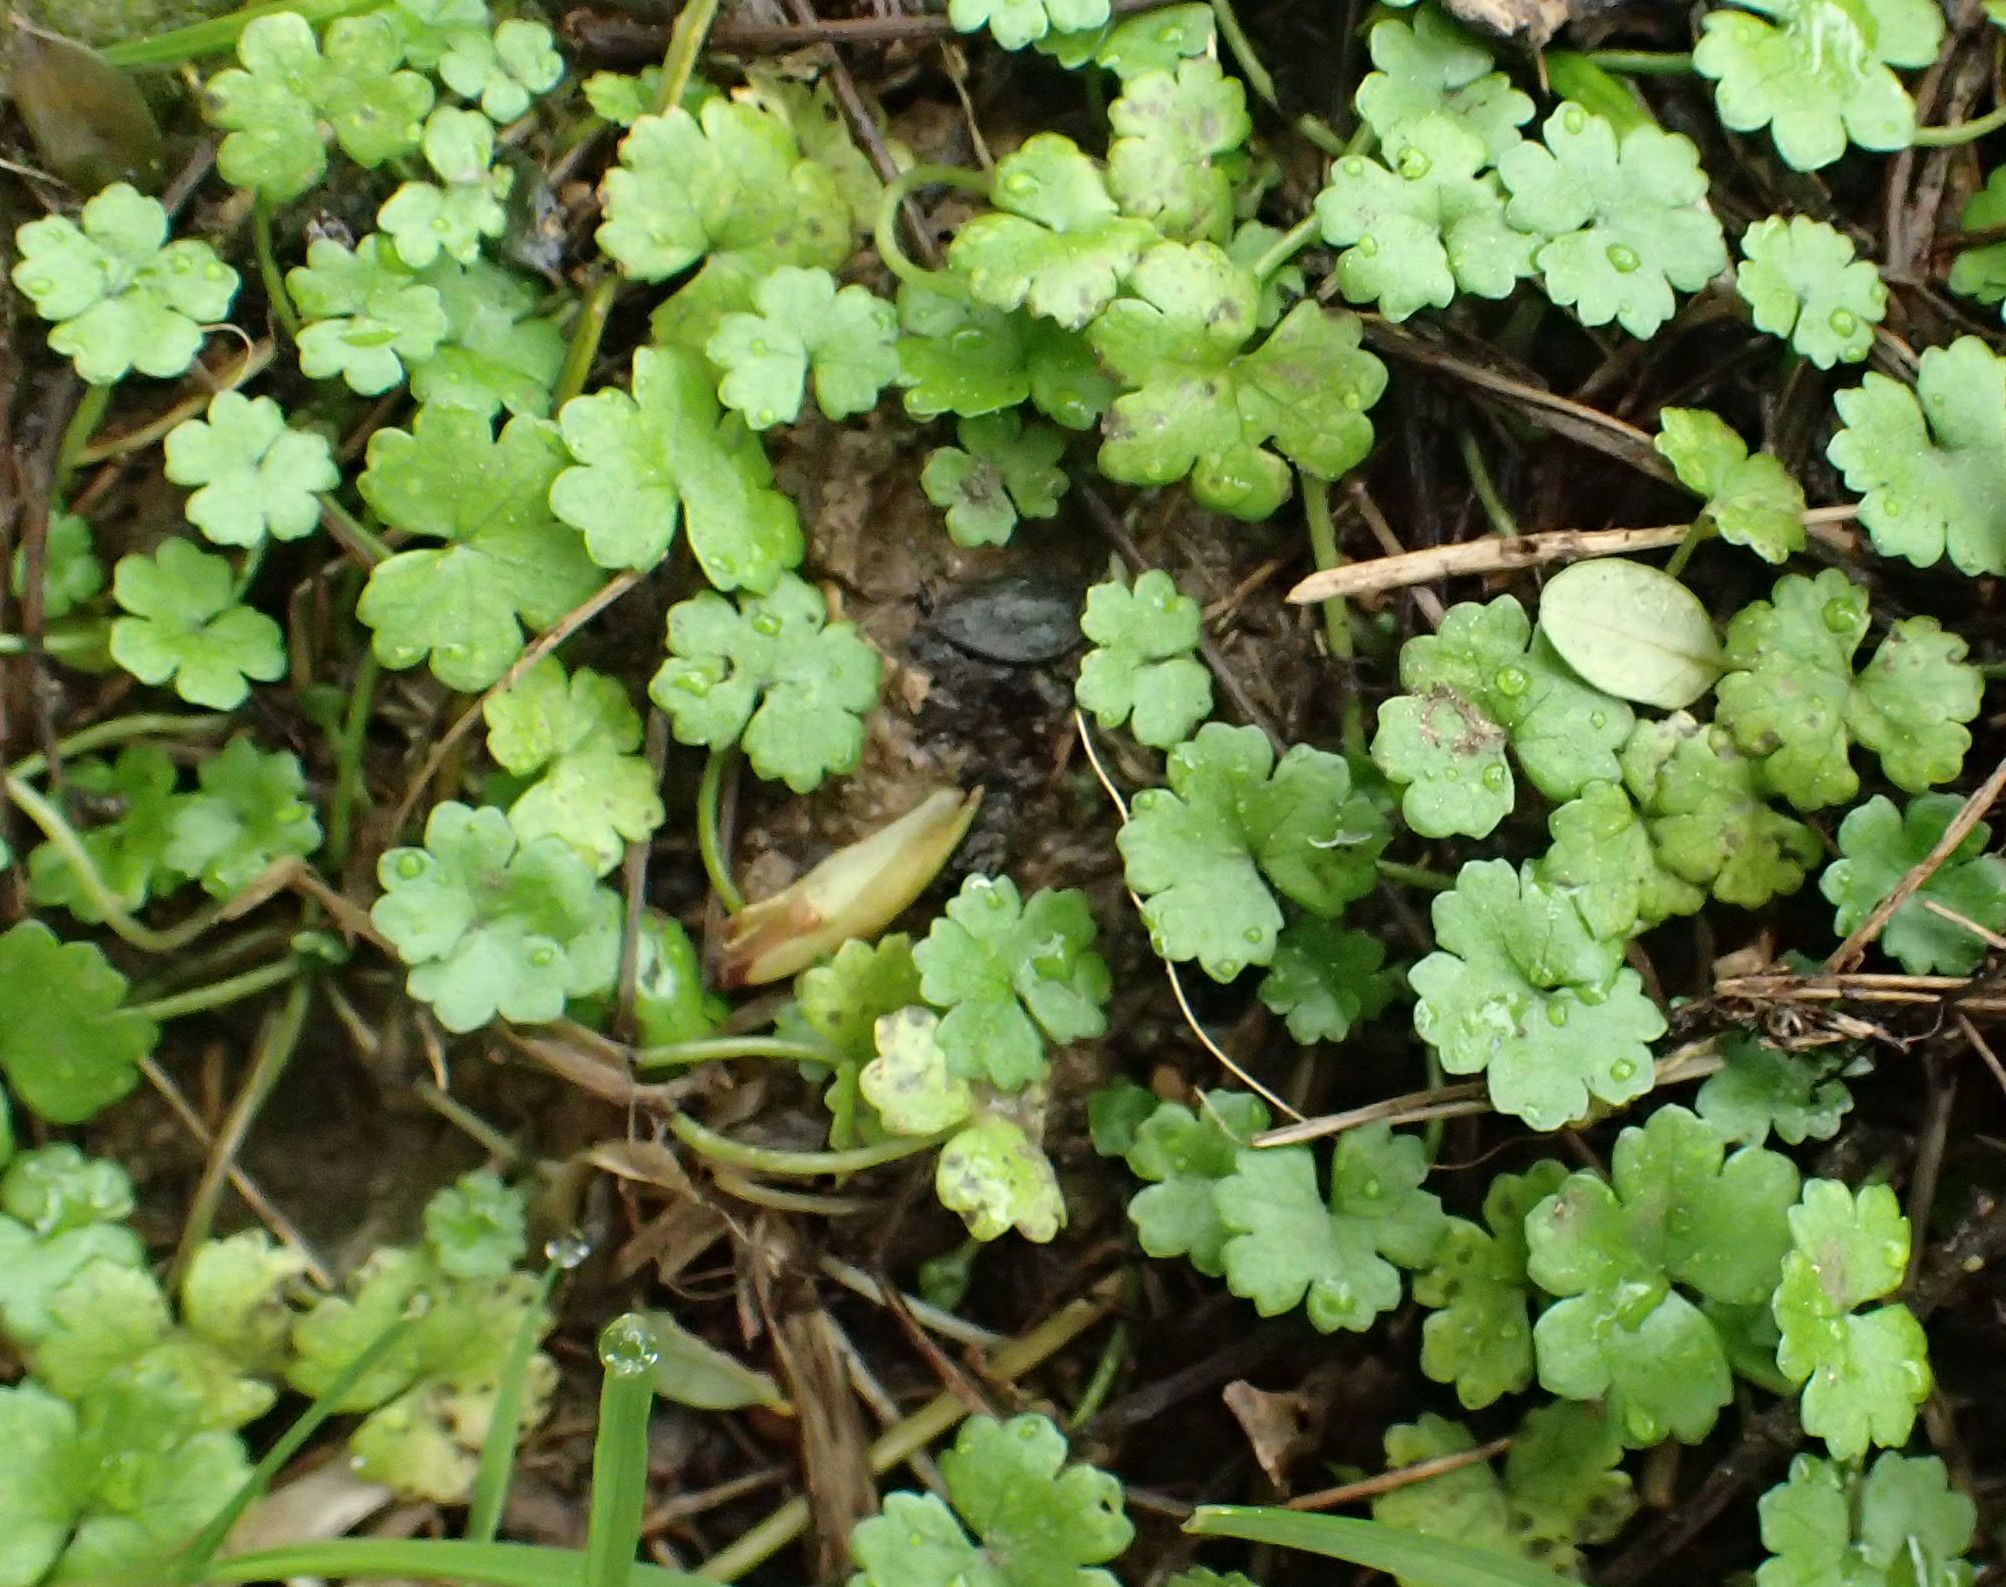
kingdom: Plantae
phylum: Tracheophyta
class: Magnoliopsida
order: Apiales
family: Araliaceae
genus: Hydrocotyle
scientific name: Hydrocotyle heteromeria
